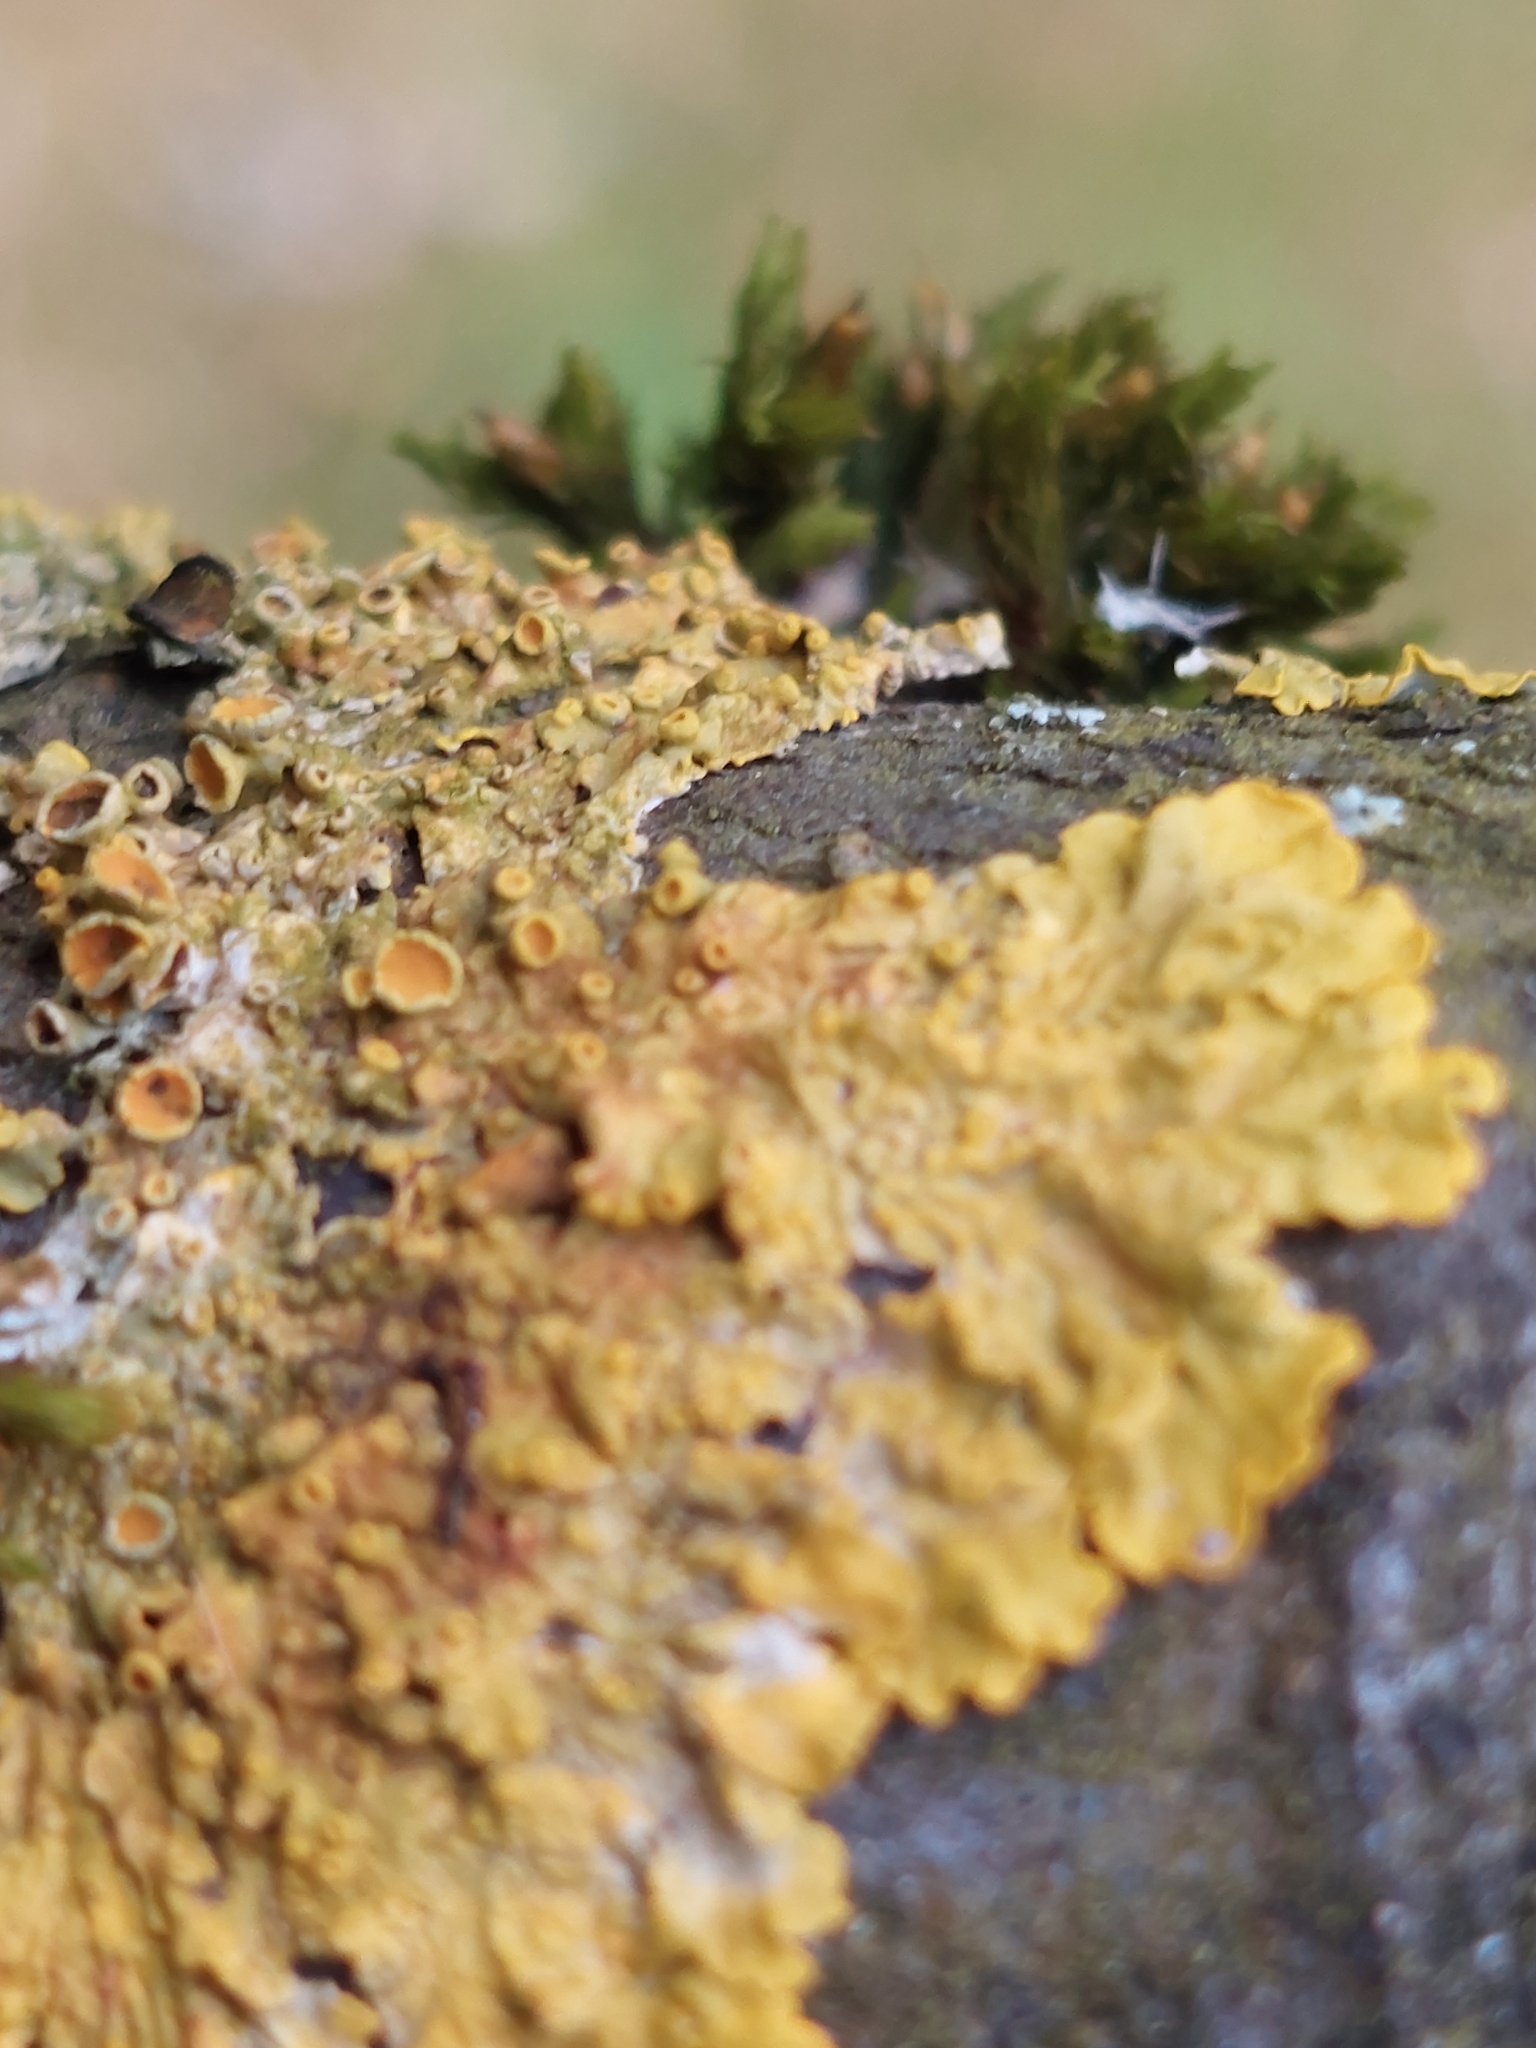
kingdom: Fungi
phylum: Ascomycota
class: Lecanoromycetes
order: Teloschistales
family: Teloschistaceae
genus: Xanthoria
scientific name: Xanthoria parietina
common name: Common orange lichen
